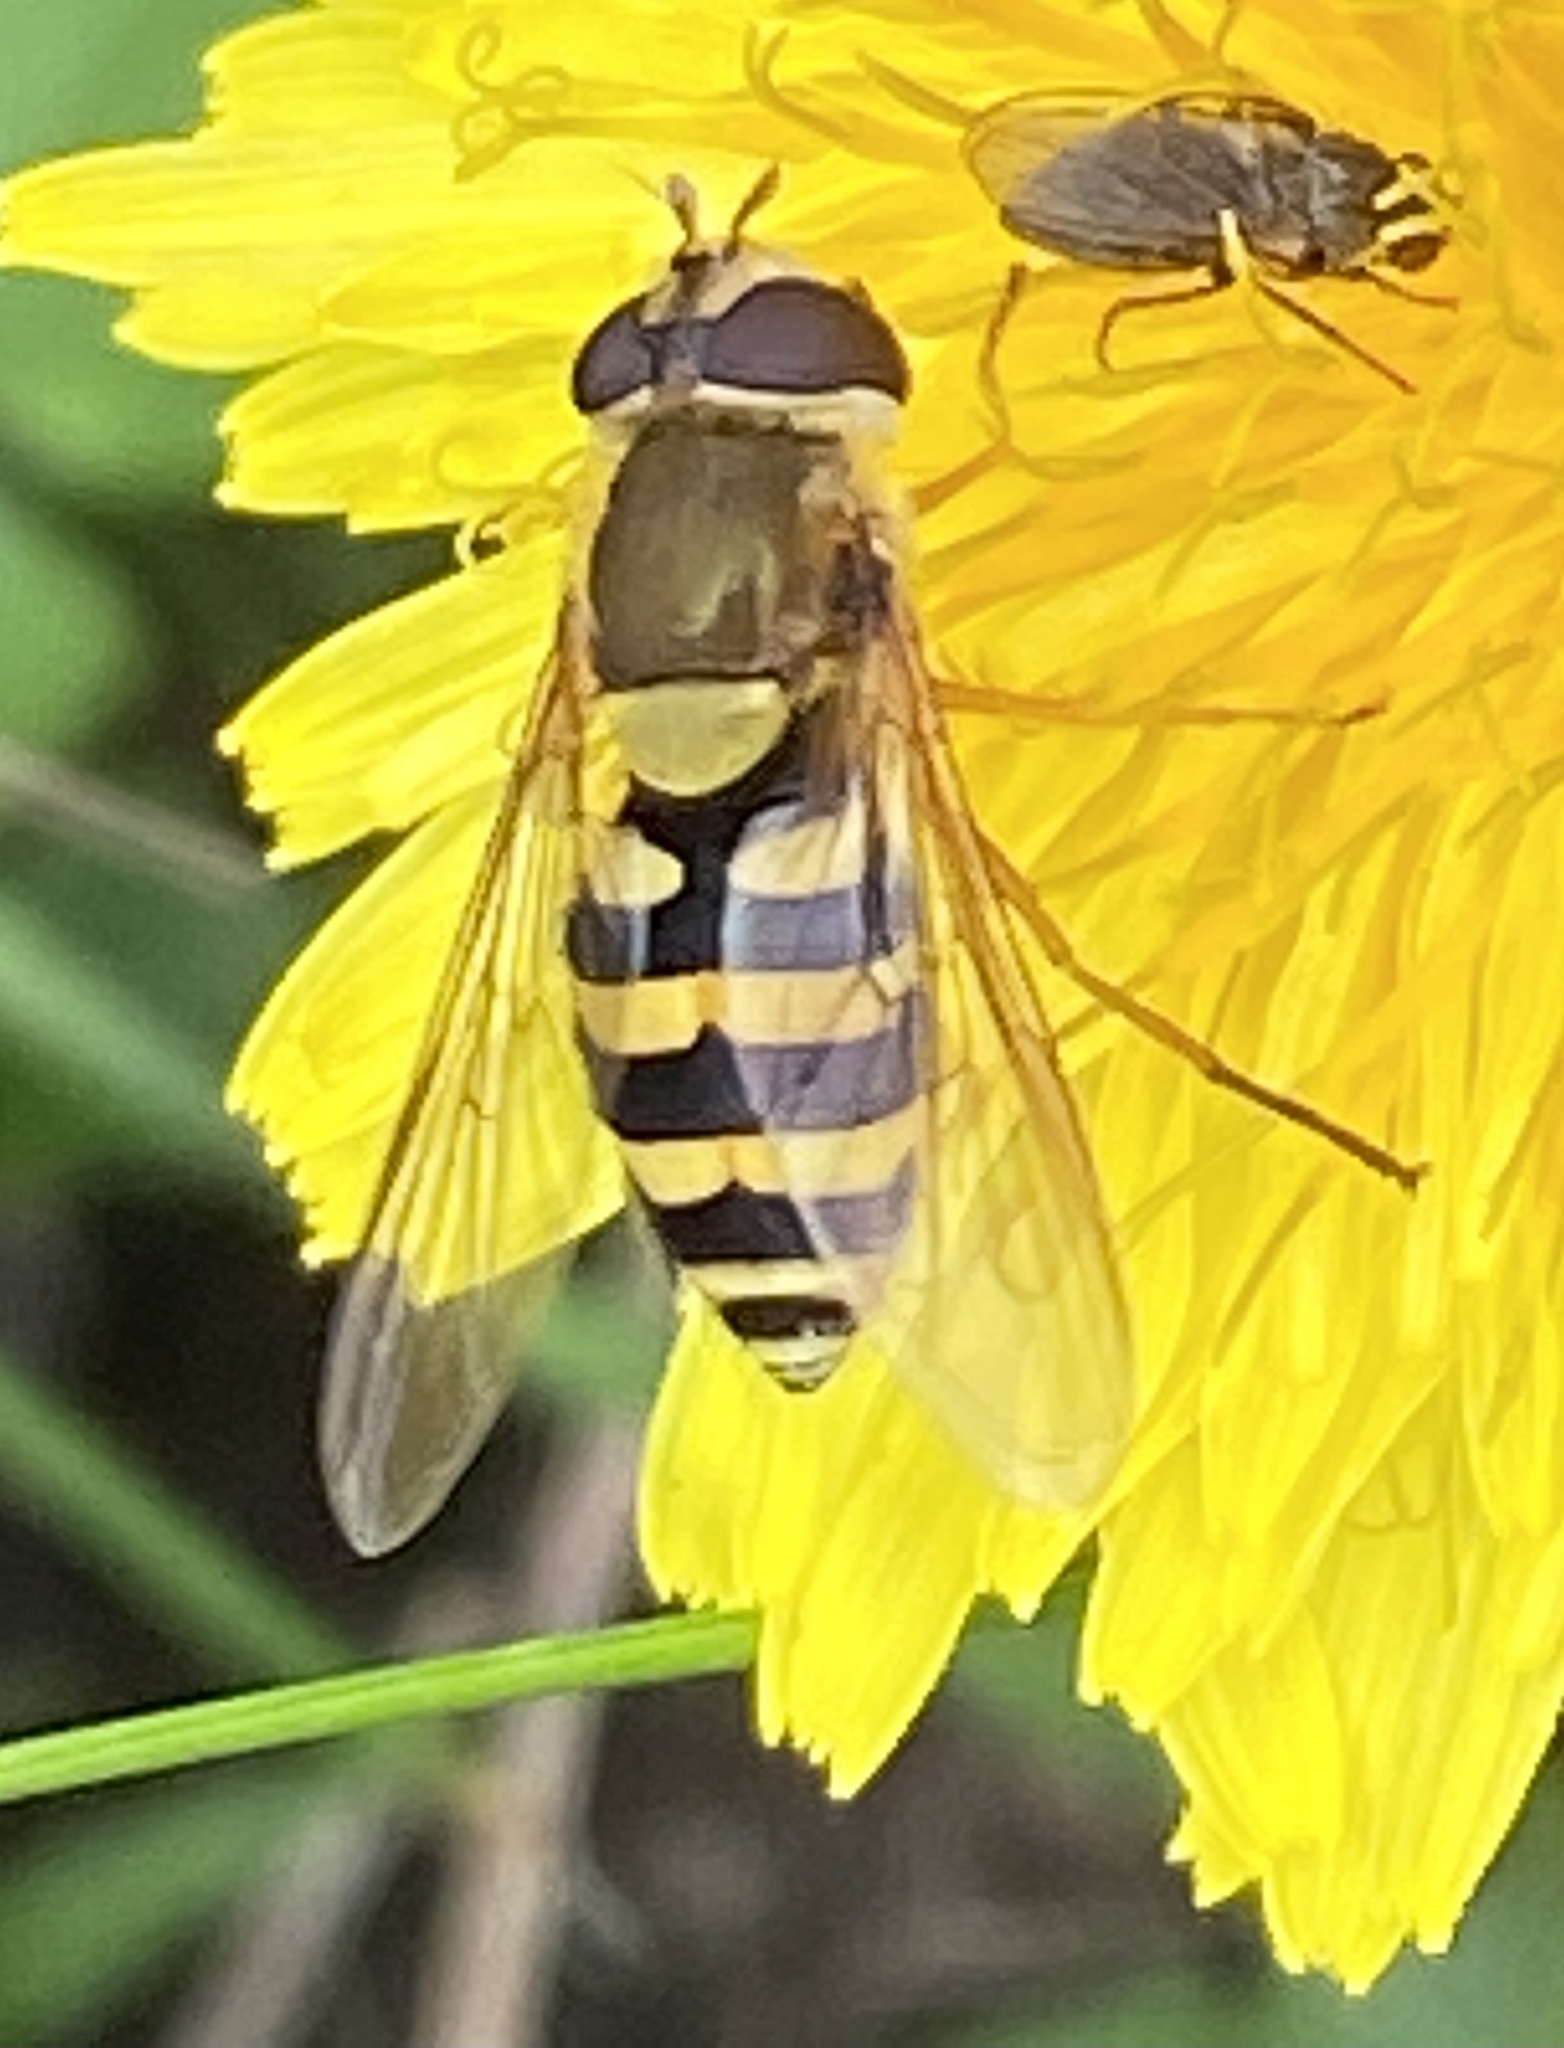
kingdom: Animalia
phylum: Arthropoda
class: Insecta
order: Diptera
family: Syrphidae
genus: Syrphus
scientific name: Syrphus ribesii
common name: Common flower fly
